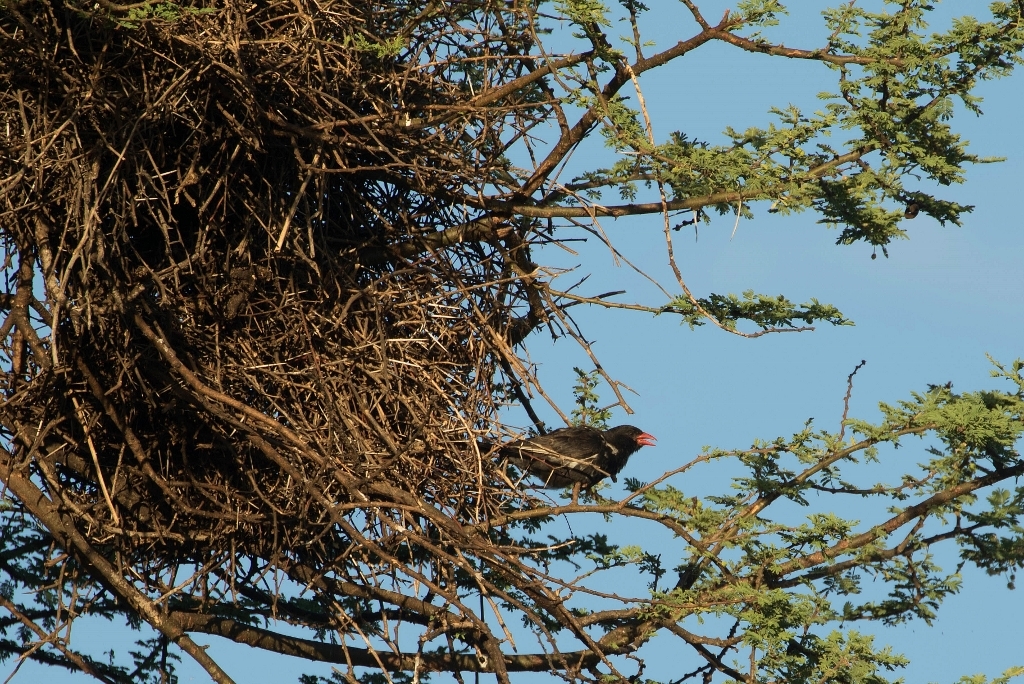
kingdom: Animalia
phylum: Chordata
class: Aves
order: Passeriformes
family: Ploceidae
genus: Bubalornis
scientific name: Bubalornis niger
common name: Red-billed buffalo weaver
